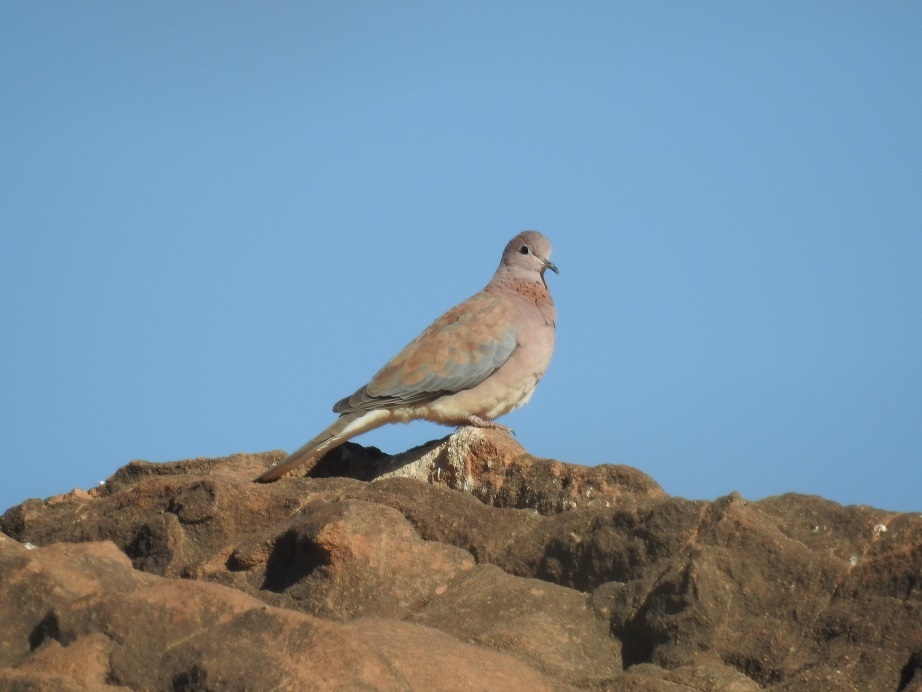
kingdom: Animalia
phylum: Chordata
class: Aves
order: Columbiformes
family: Columbidae
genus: Spilopelia
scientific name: Spilopelia senegalensis
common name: Laughing dove
